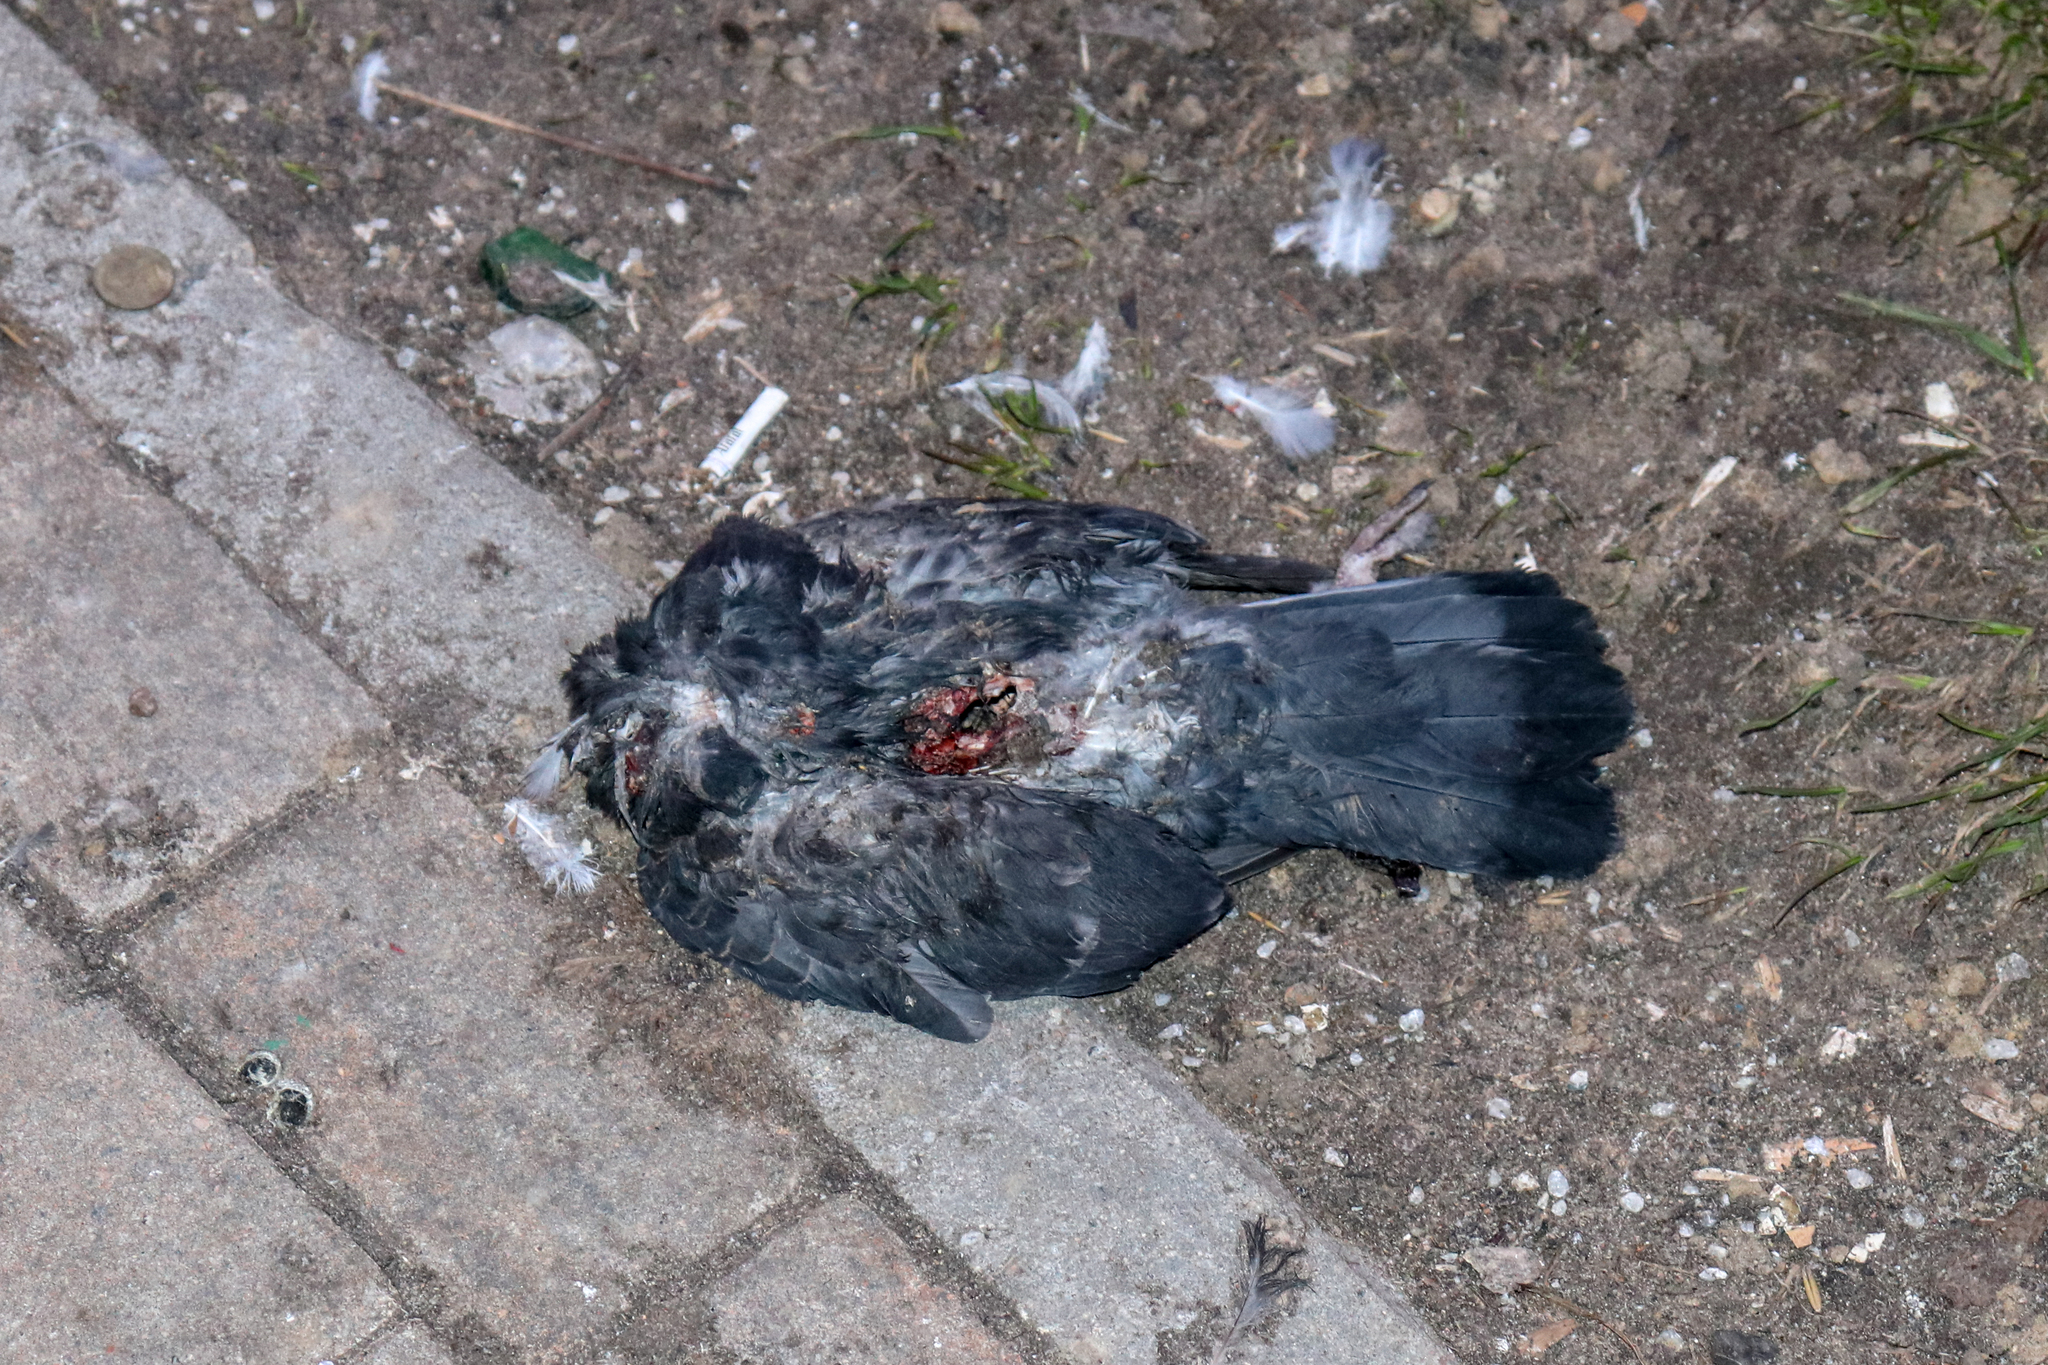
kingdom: Animalia
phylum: Chordata
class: Aves
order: Columbiformes
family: Columbidae
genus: Columba
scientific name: Columba livia
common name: Rock pigeon
